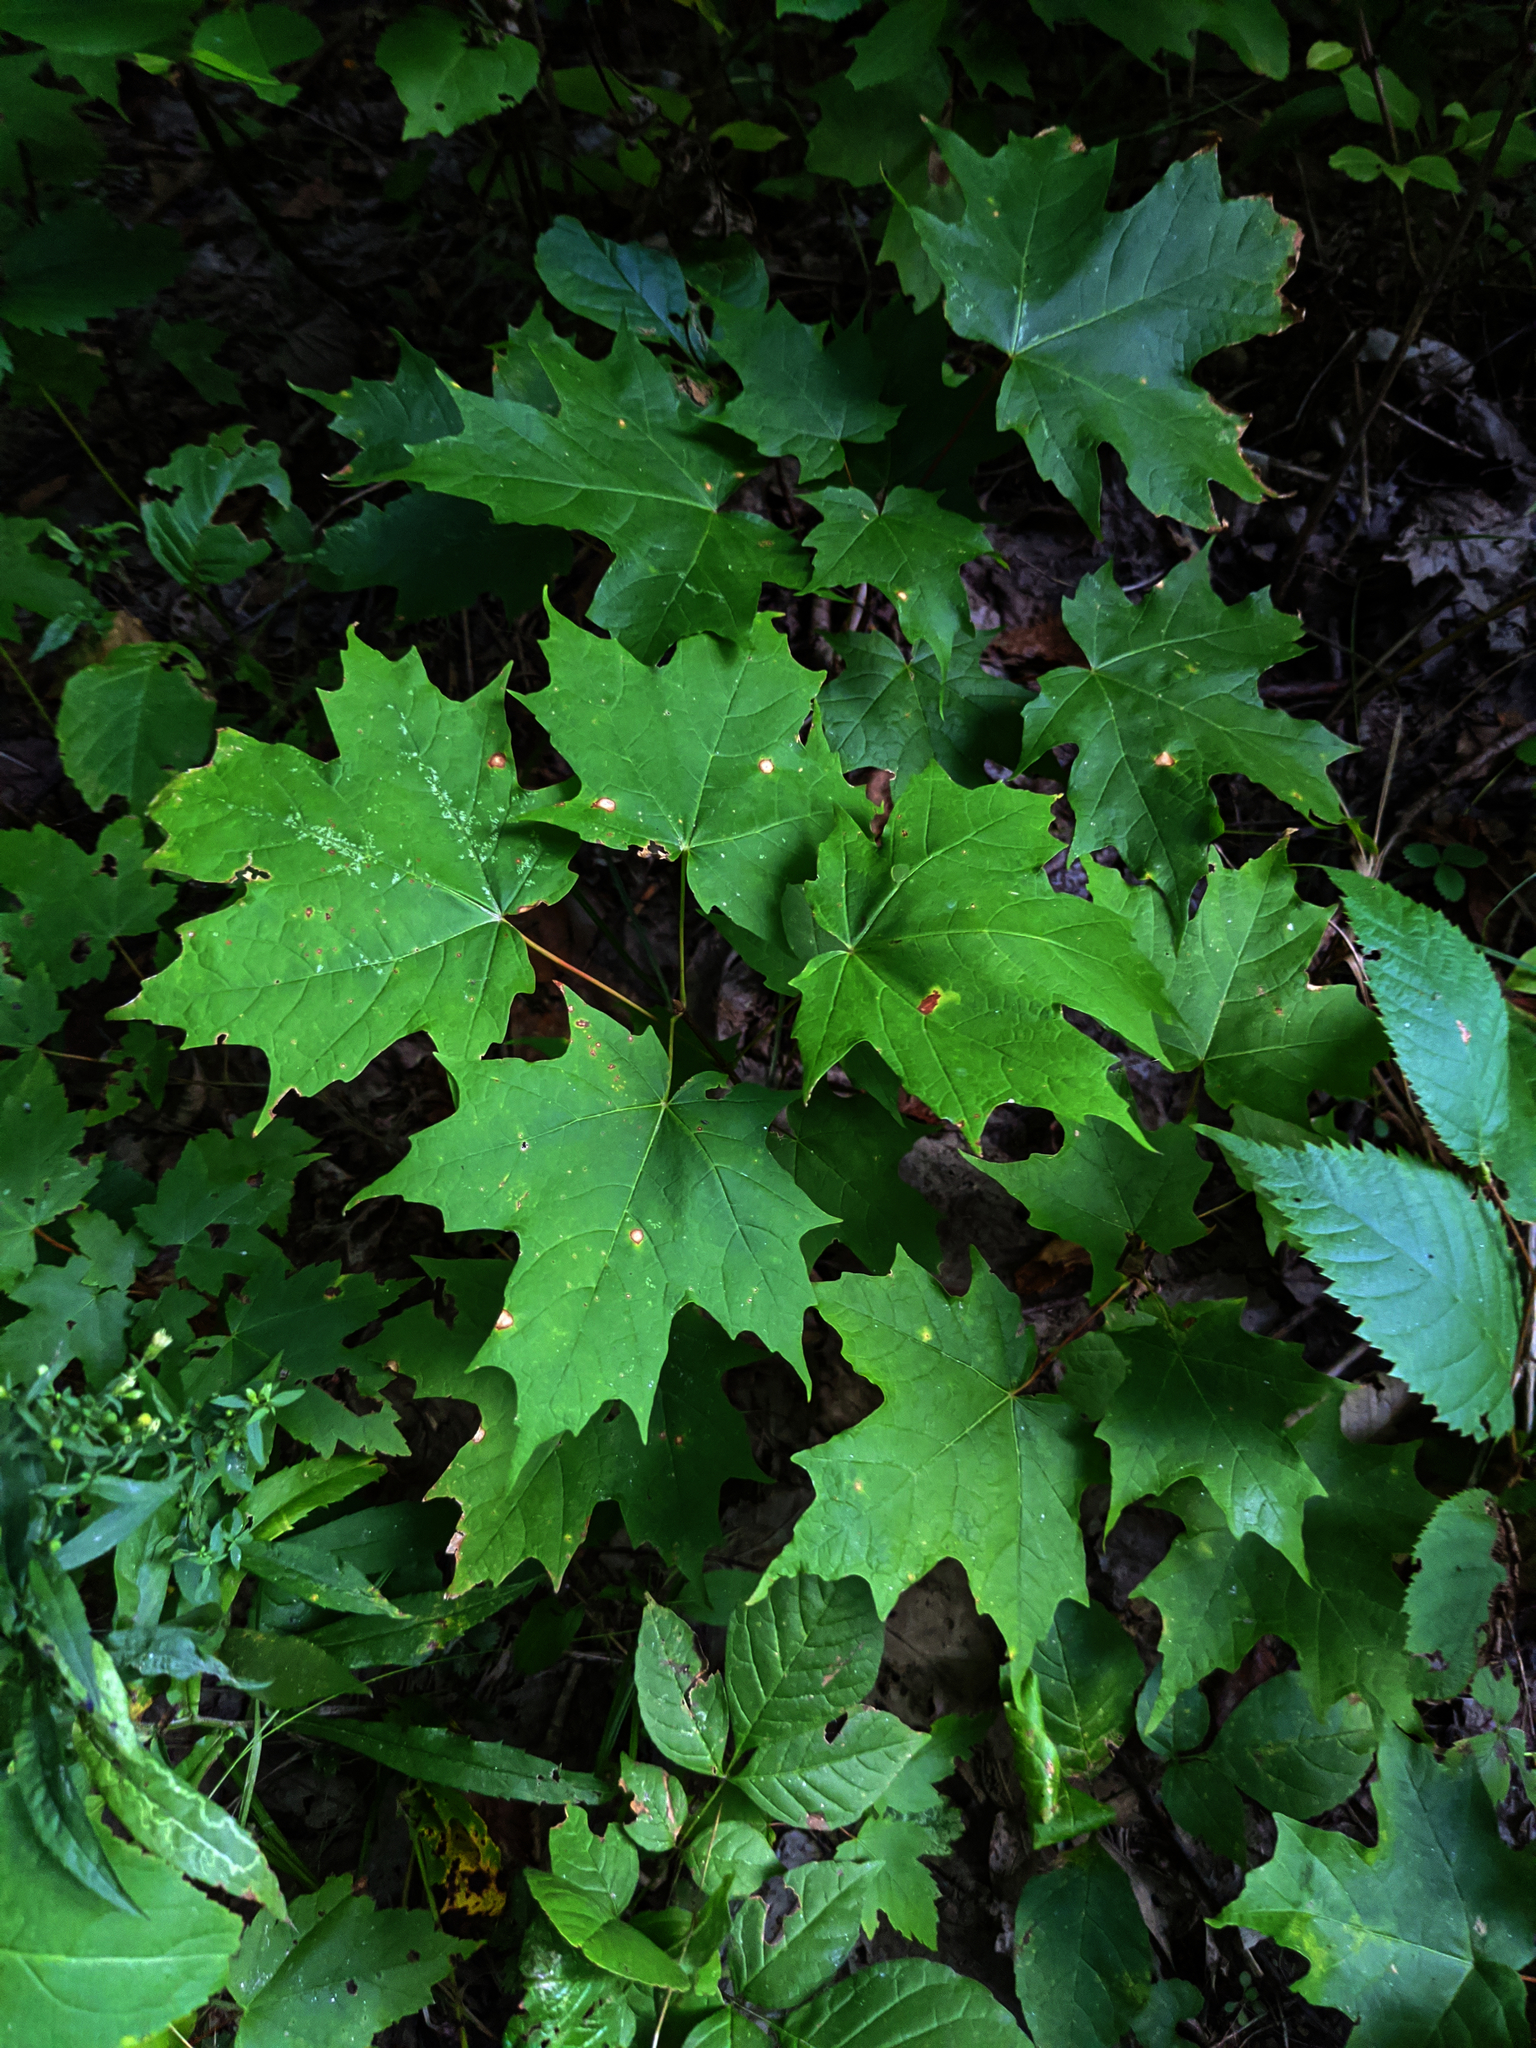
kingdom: Plantae
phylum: Tracheophyta
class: Magnoliopsida
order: Sapindales
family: Sapindaceae
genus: Acer
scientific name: Acer saccharum
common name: Sugar maple
